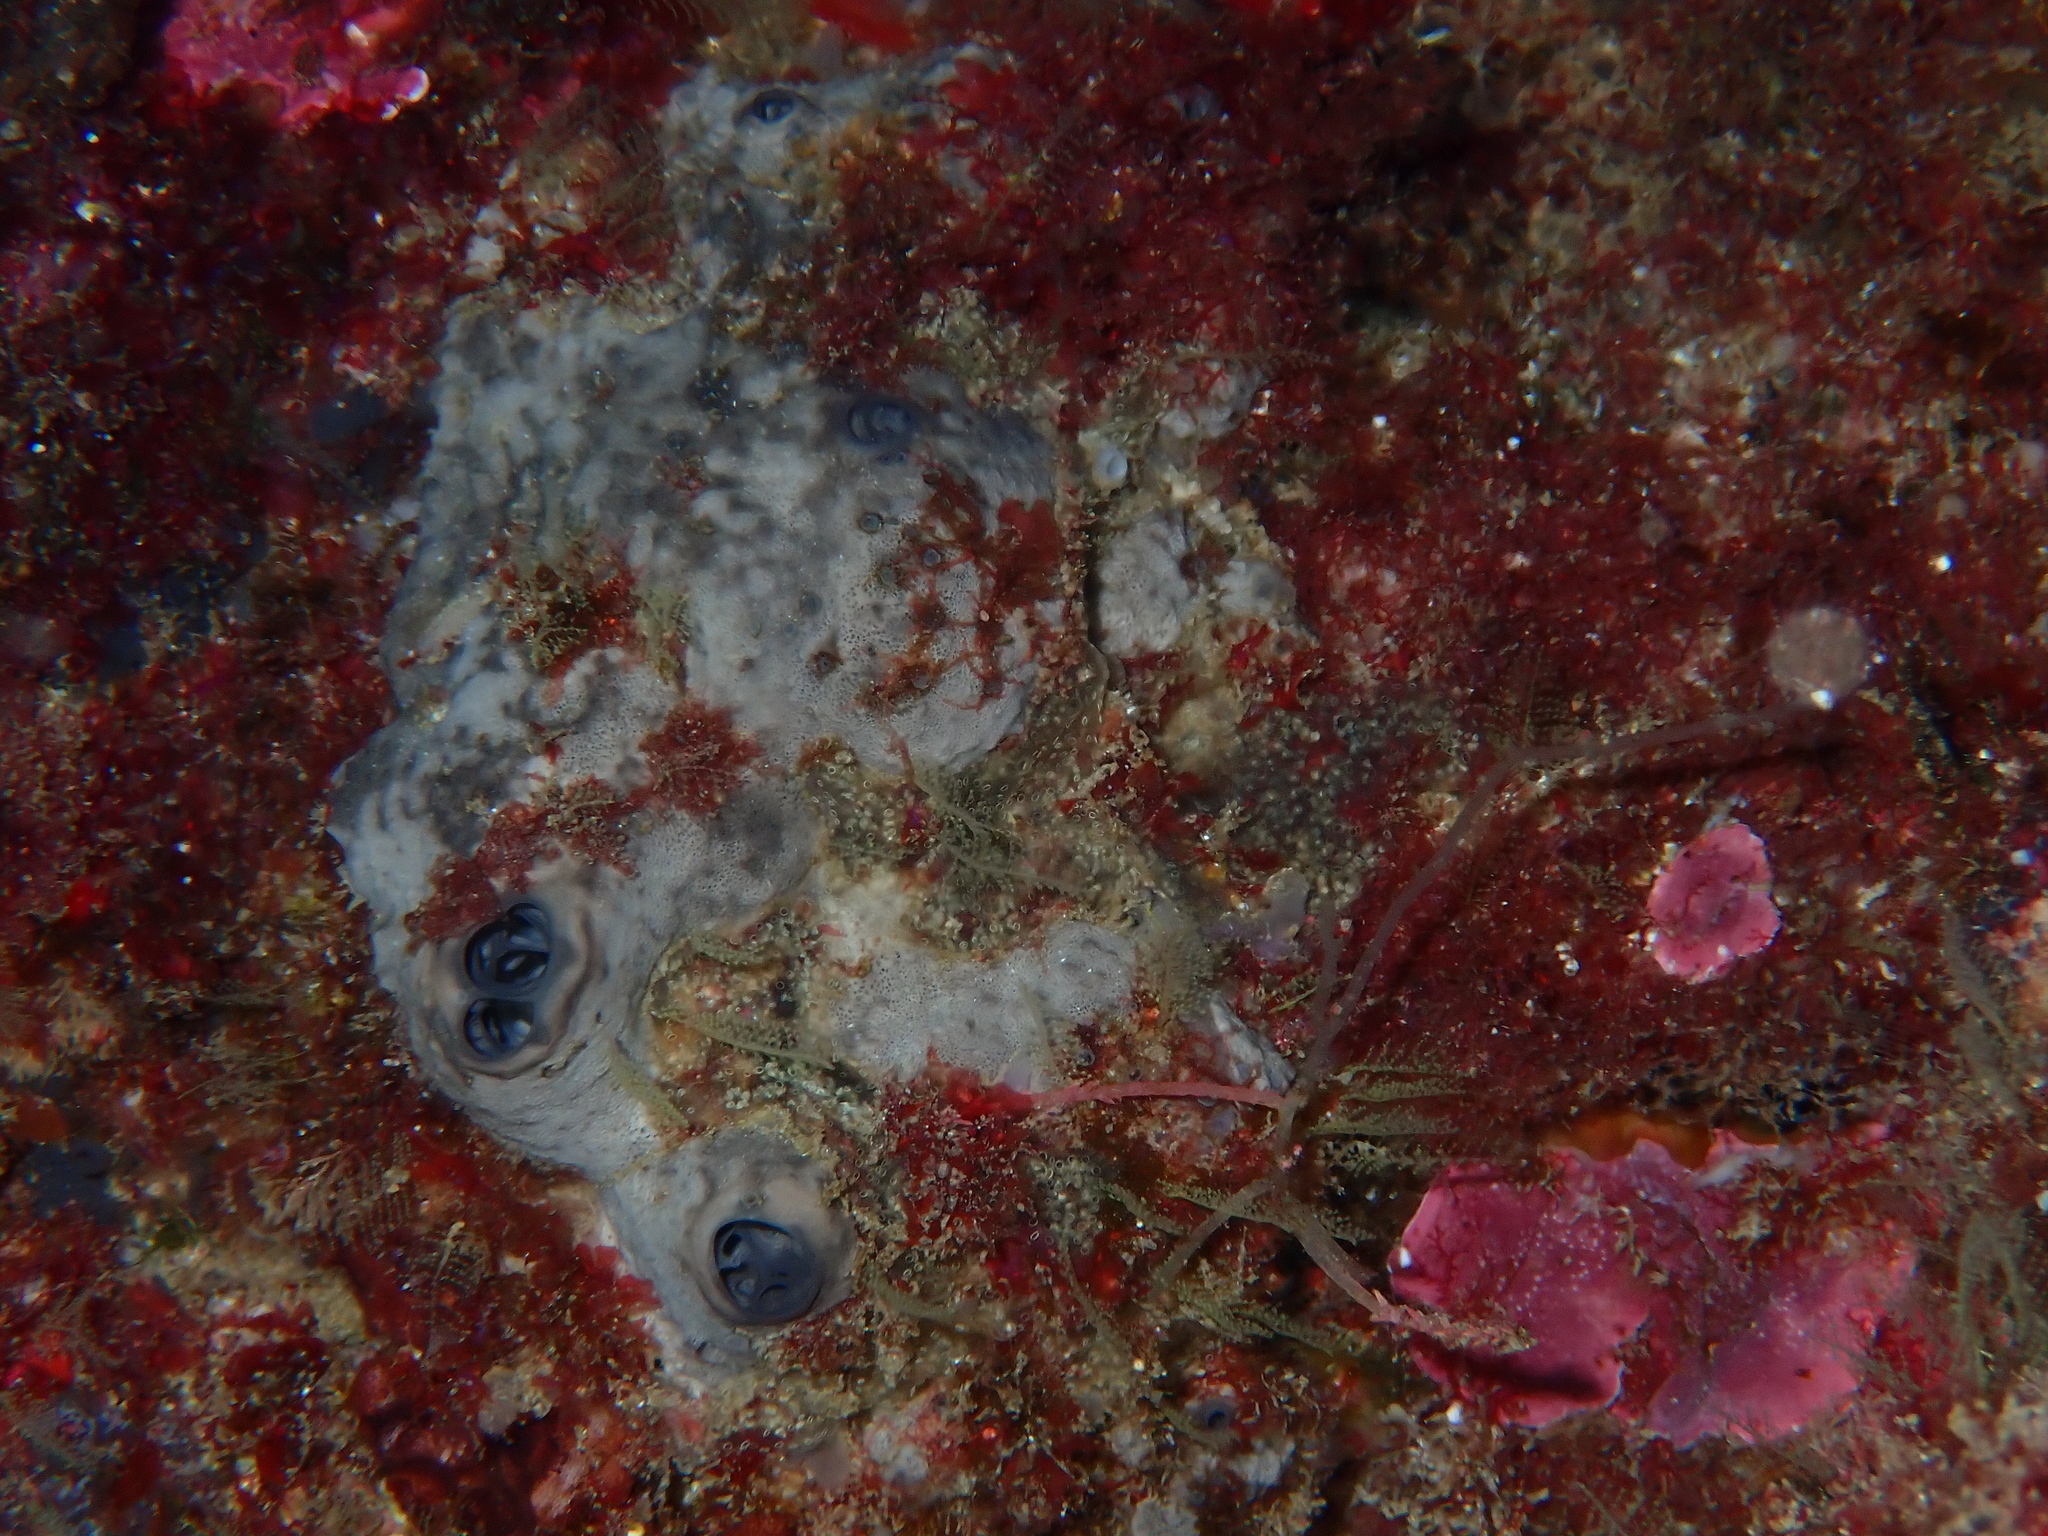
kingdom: Animalia
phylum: Porifera
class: Demospongiae
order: Dictyoceratida
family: Irciniidae
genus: Ircinia
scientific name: Ircinia oros
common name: Grey leather sponge
